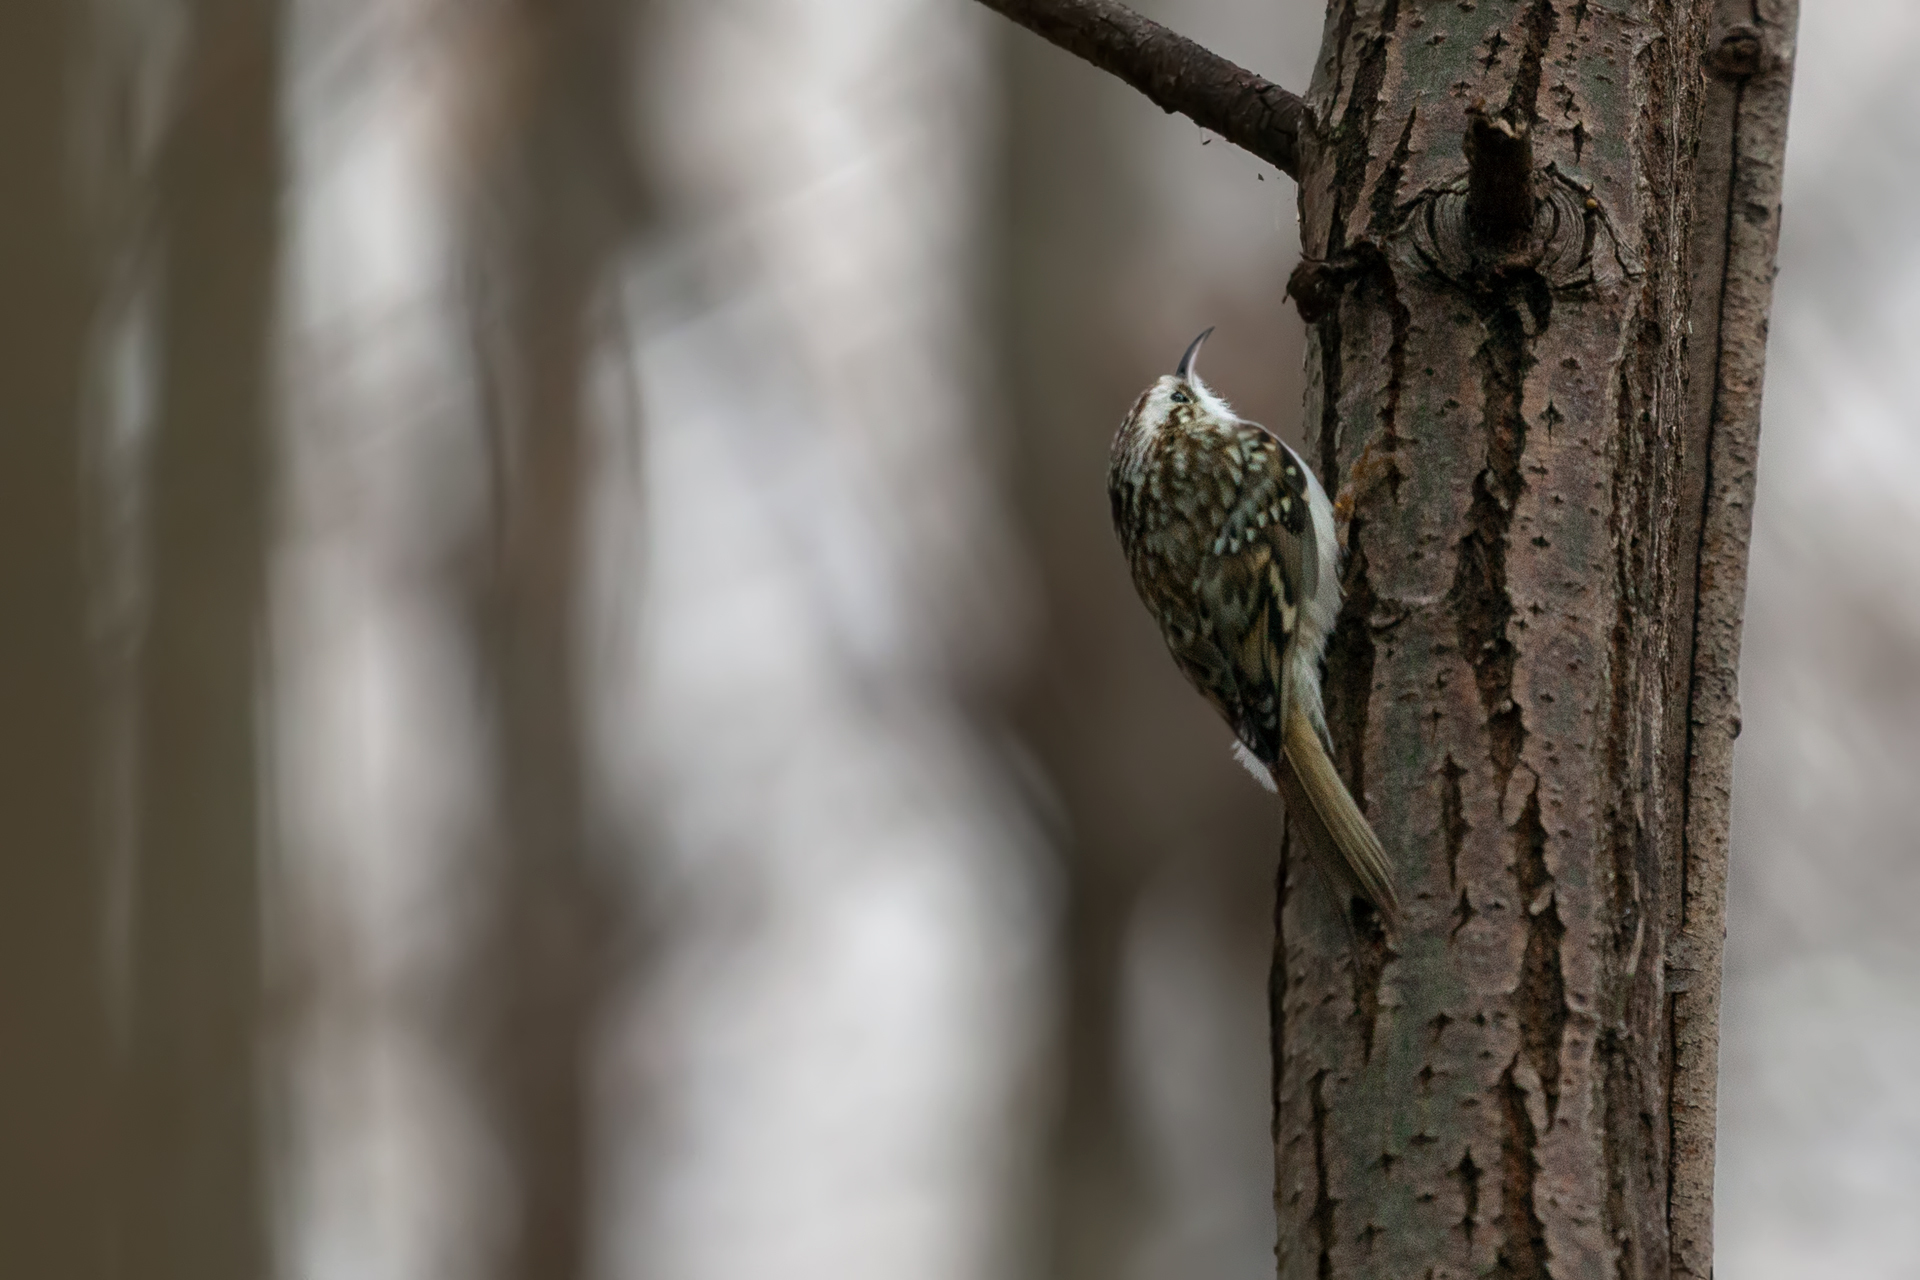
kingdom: Animalia
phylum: Chordata
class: Aves
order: Passeriformes
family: Certhiidae
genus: Certhia
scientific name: Certhia familiaris
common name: Eurasian treecreeper
